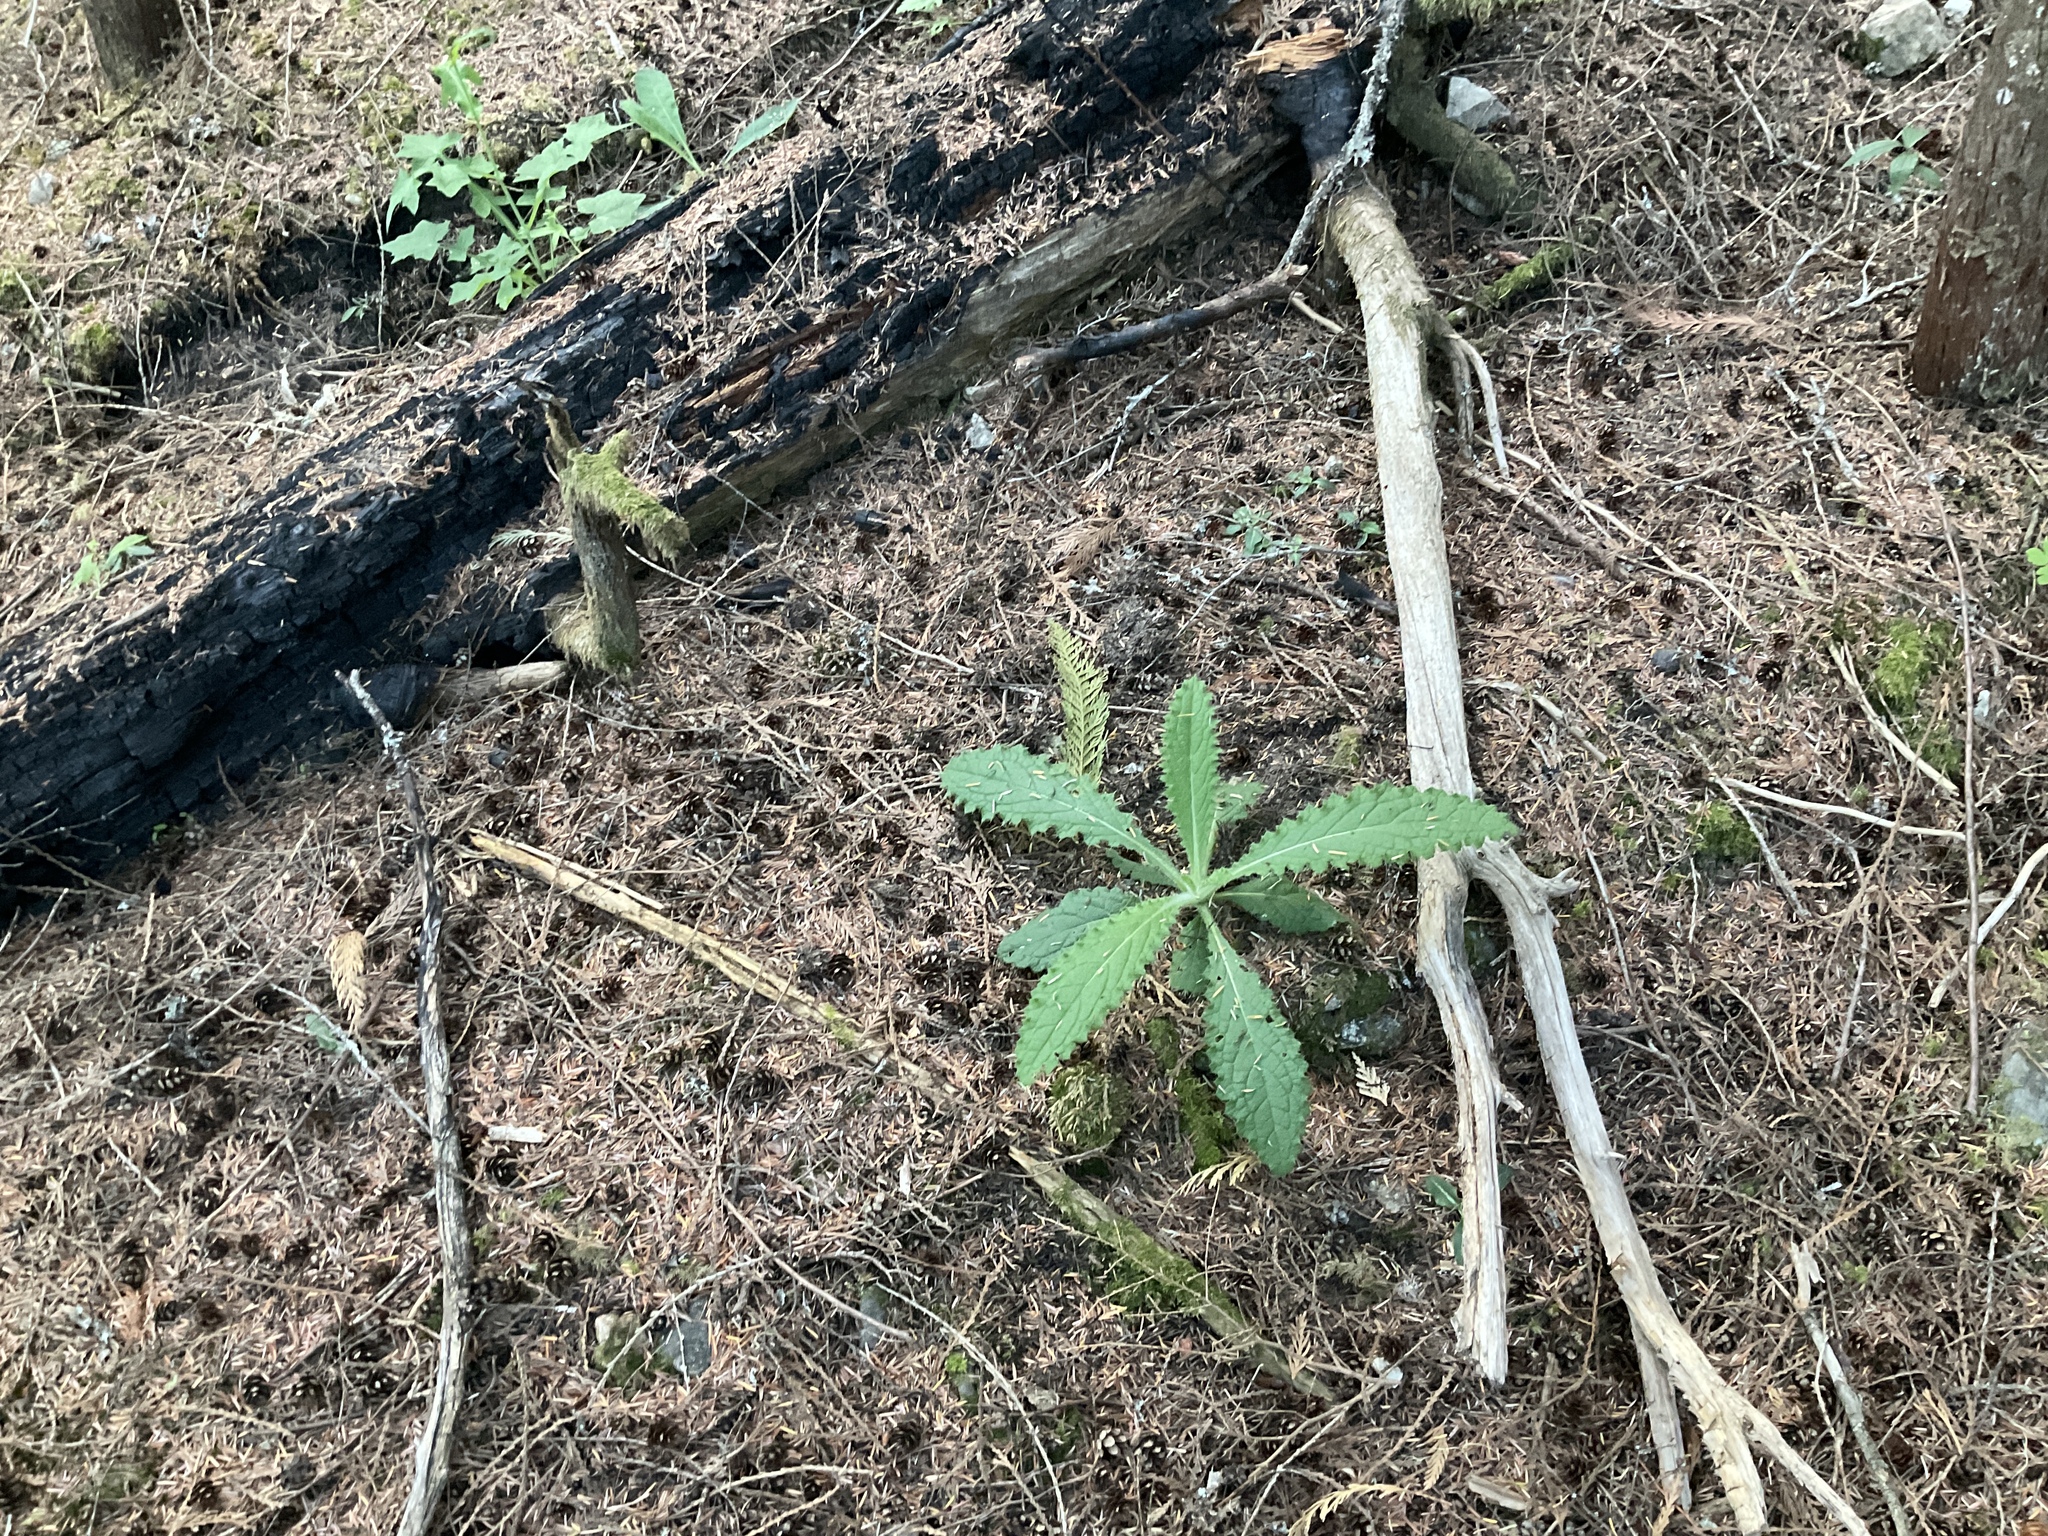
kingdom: Plantae
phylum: Tracheophyta
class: Magnoliopsida
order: Asterales
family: Asteraceae
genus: Cirsium
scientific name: Cirsium vulgare
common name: Bull thistle
